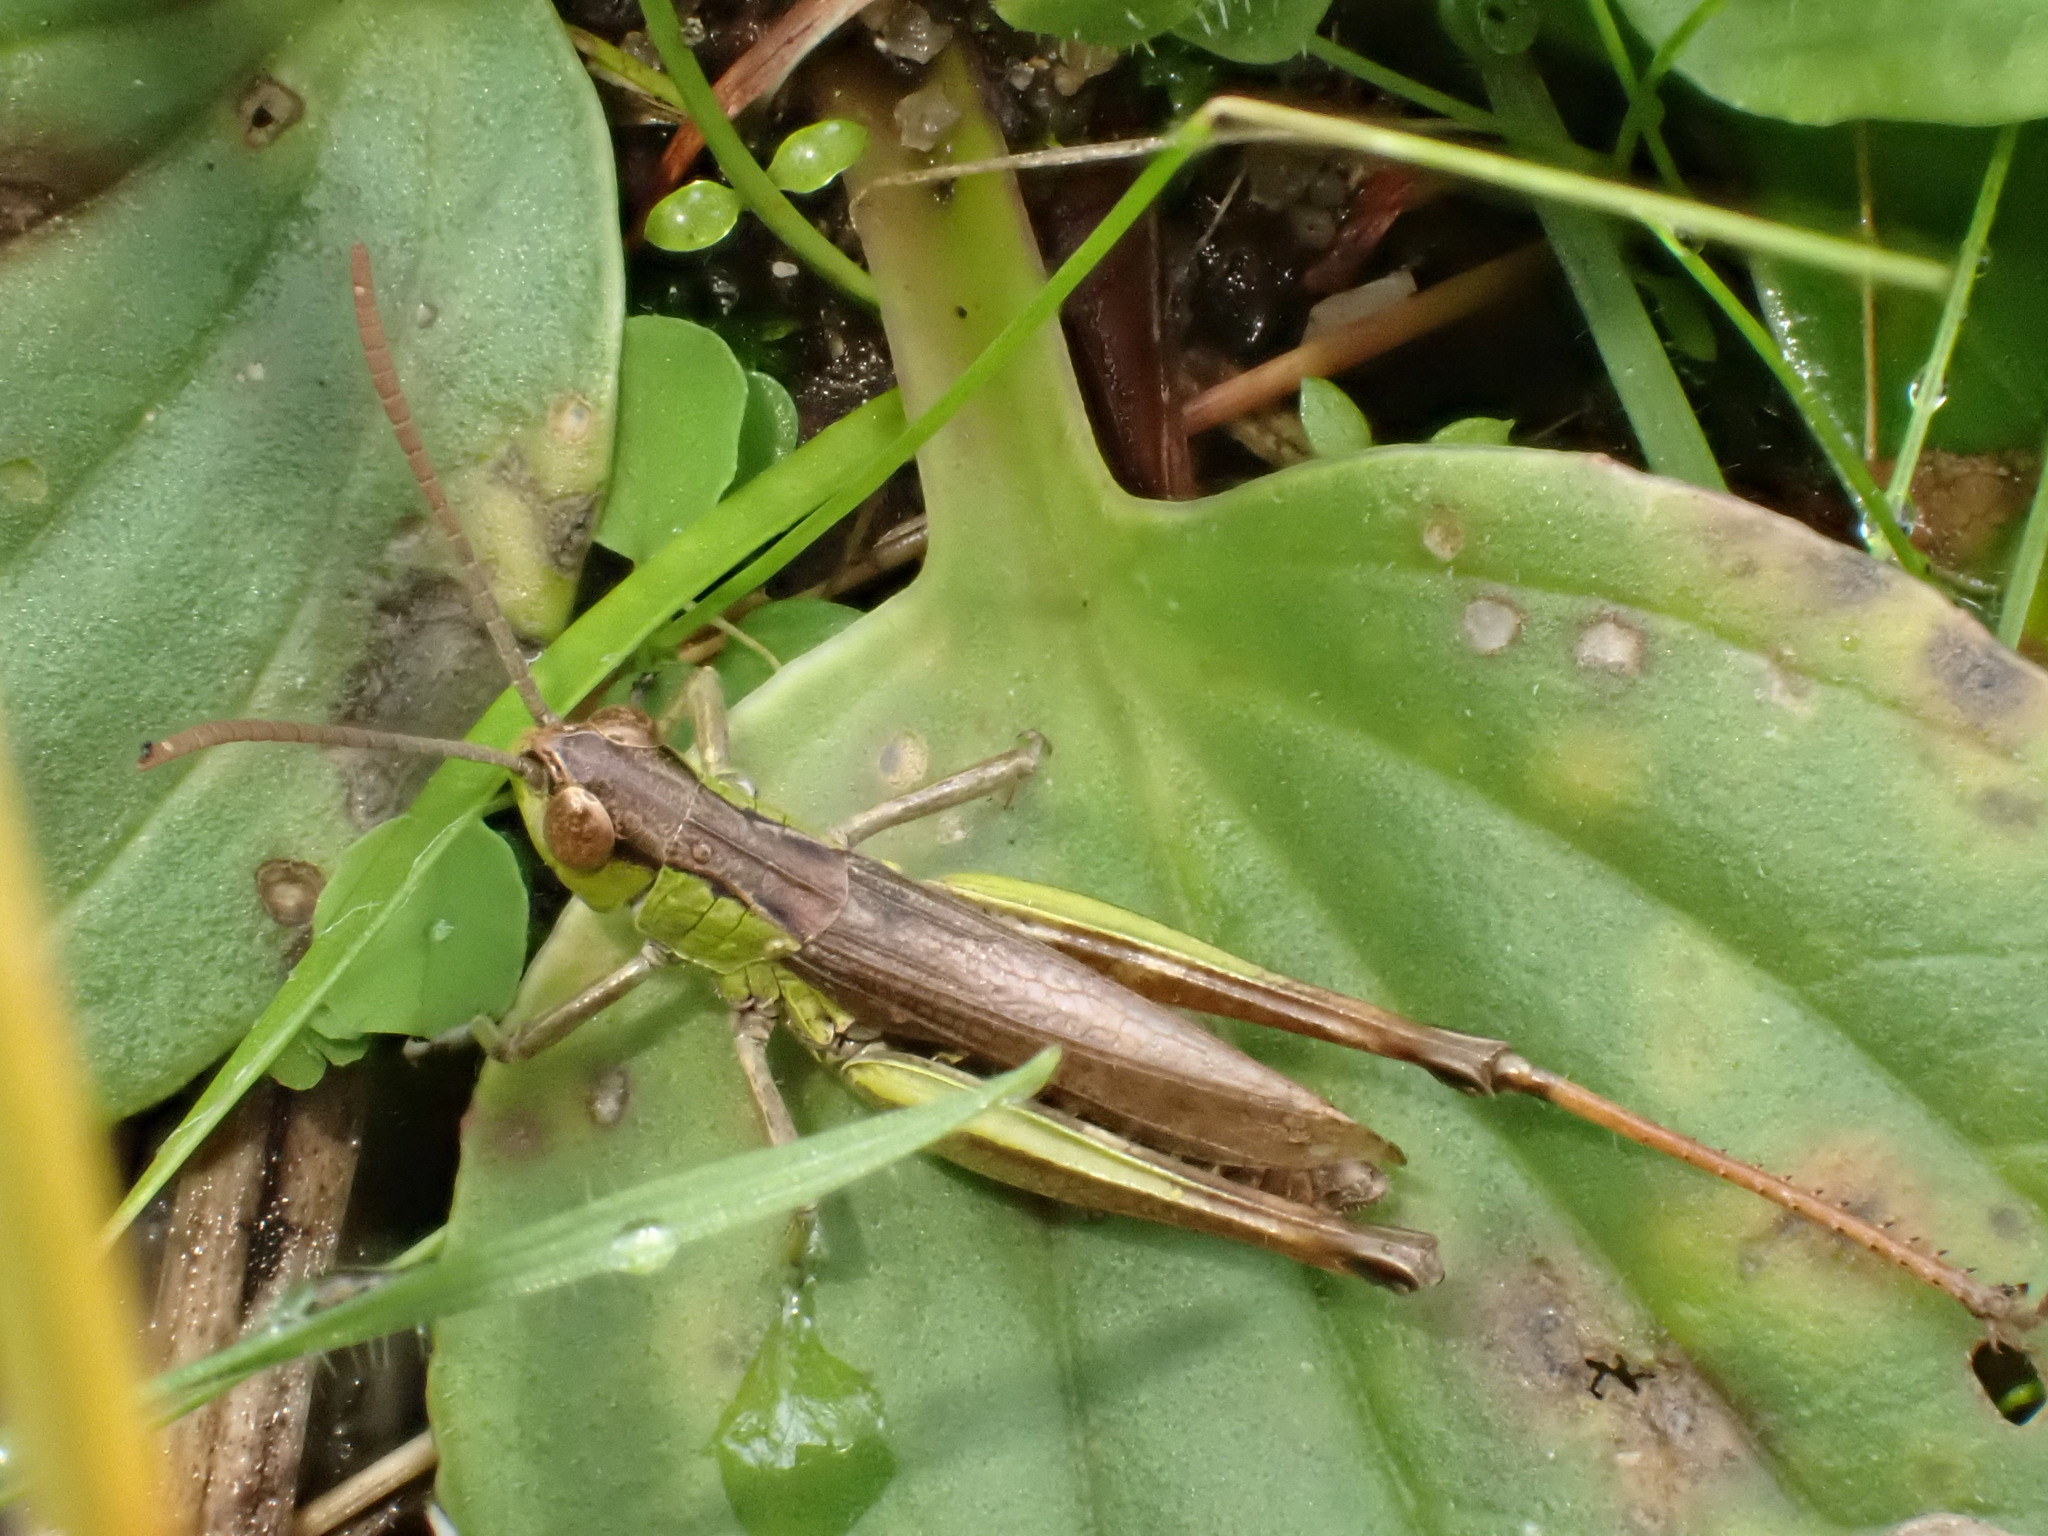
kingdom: Animalia
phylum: Arthropoda
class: Insecta
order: Orthoptera
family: Acrididae
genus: Pseudochorthippus
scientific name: Pseudochorthippus parallelus
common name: Meadow grasshopper
